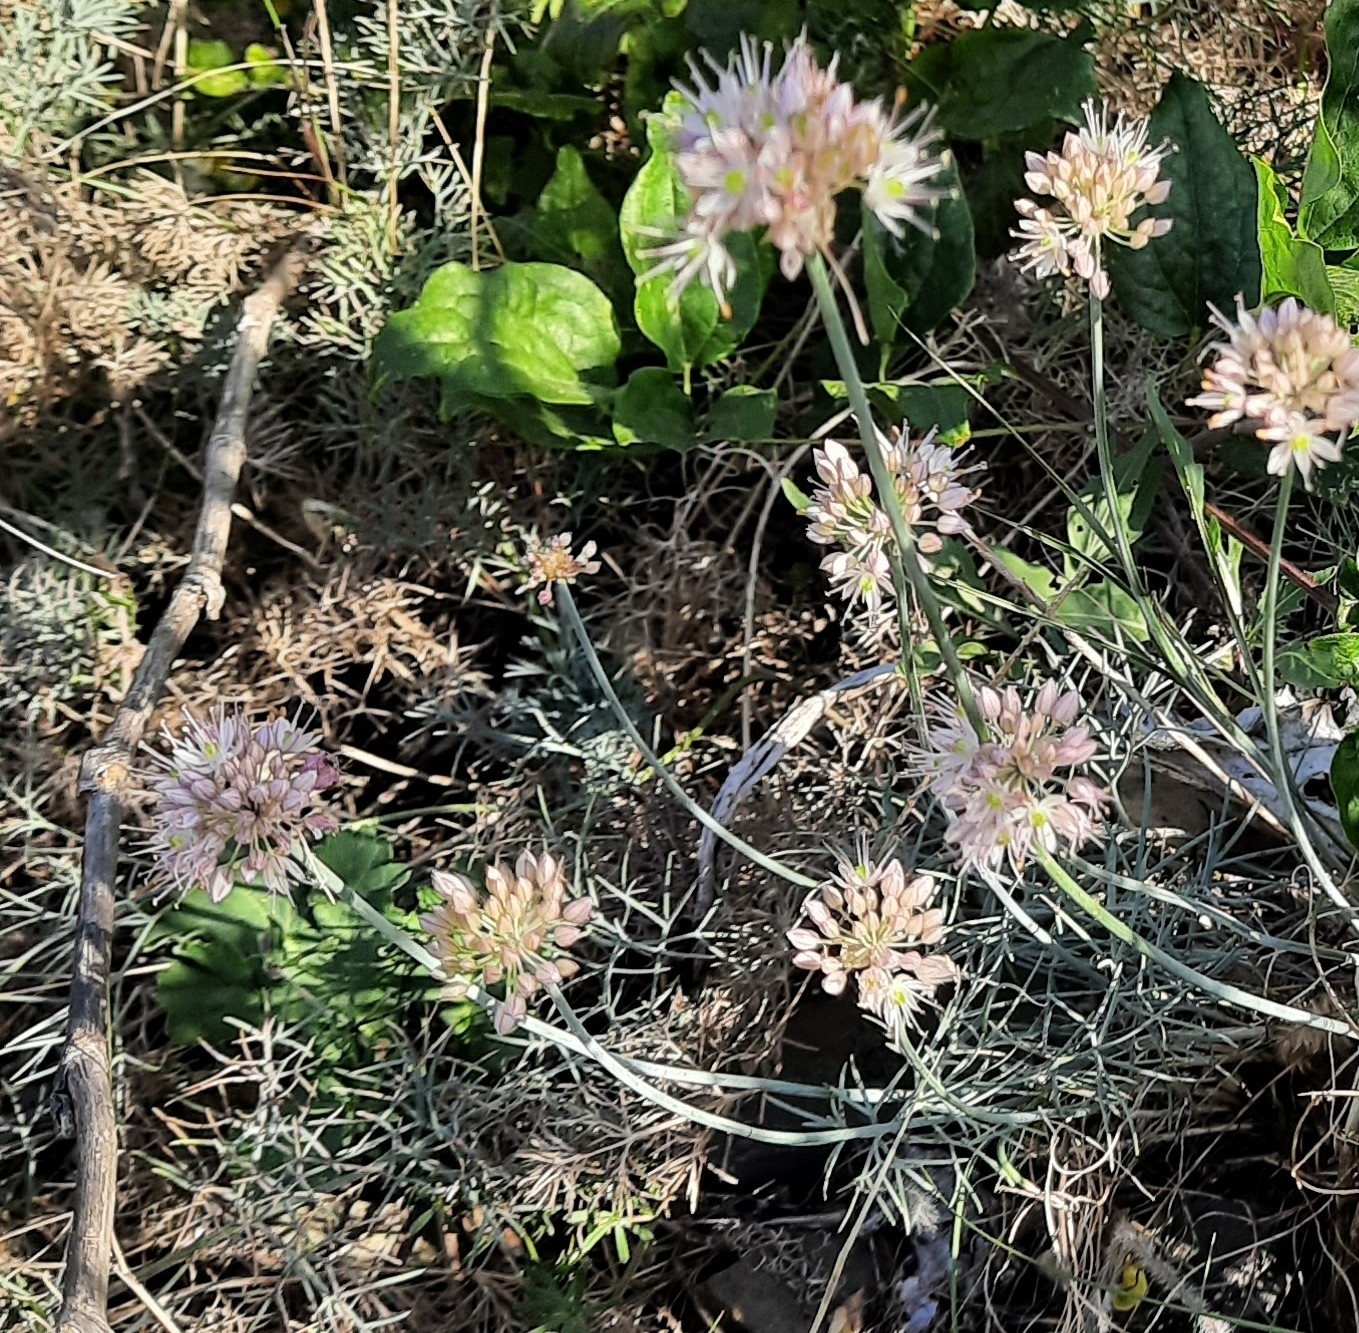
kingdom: Plantae
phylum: Tracheophyta
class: Liliopsida
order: Asparagales
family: Amaryllidaceae
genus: Allium
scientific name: Allium psebaicum
